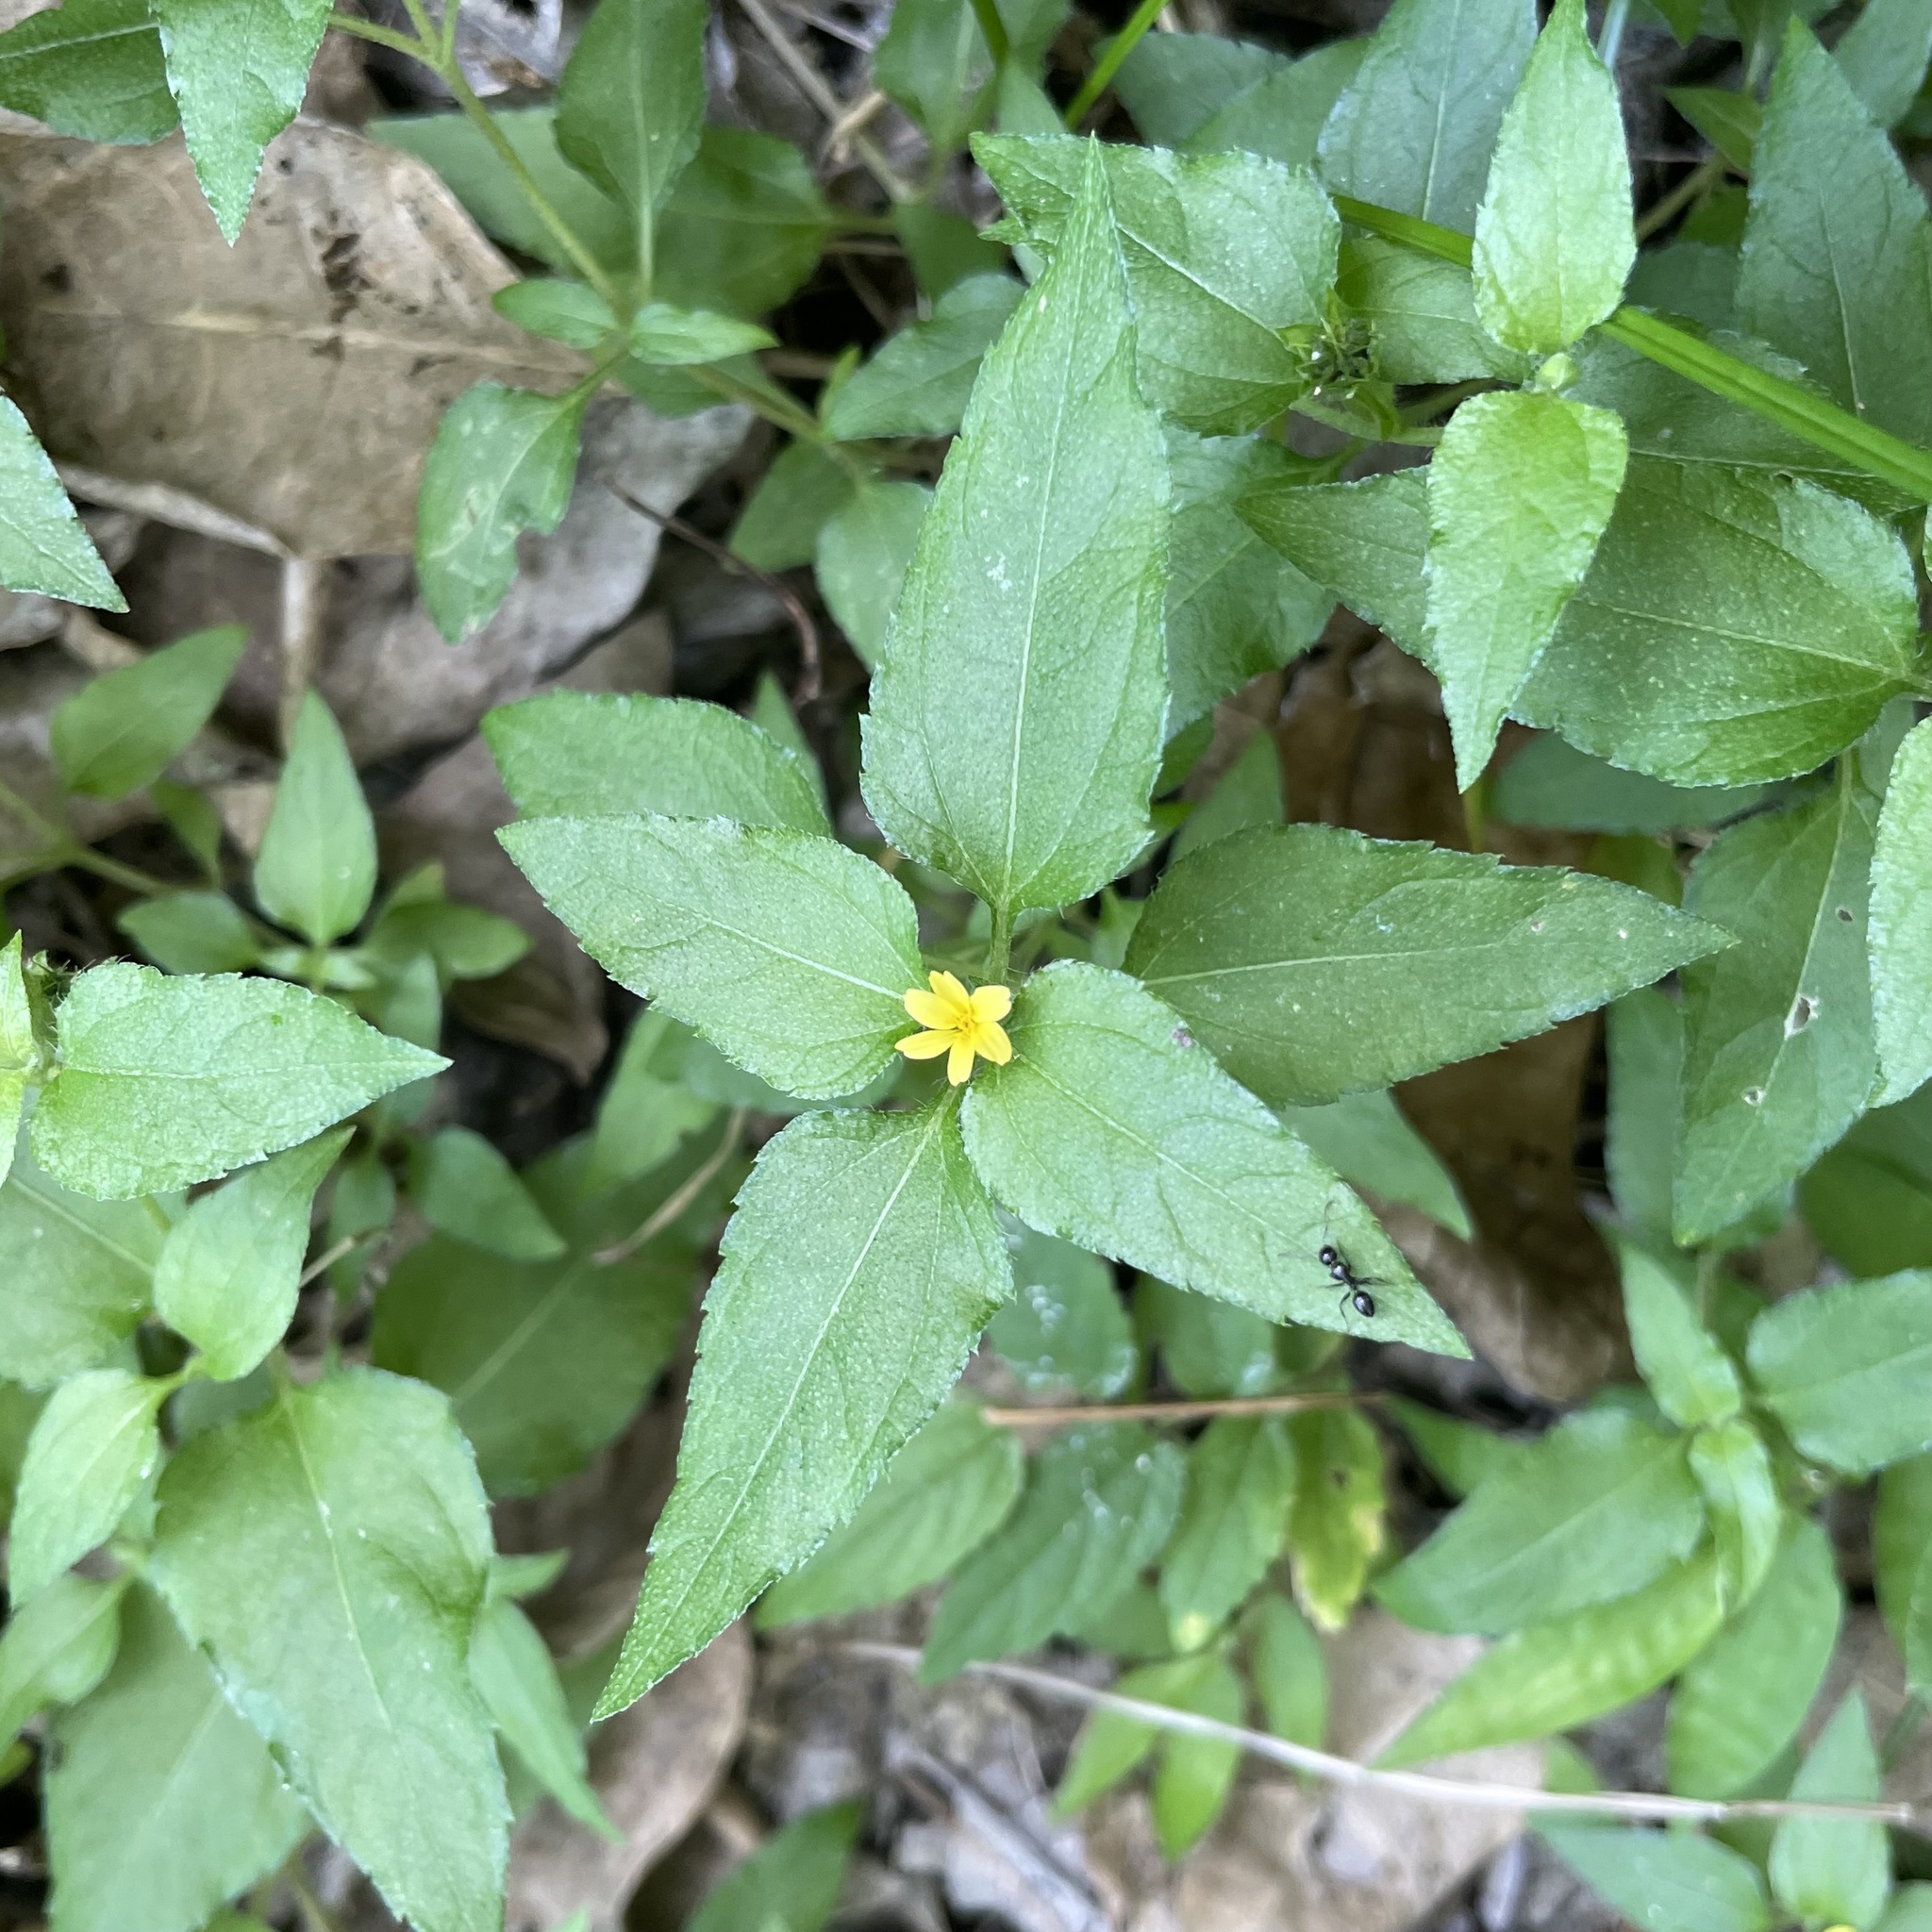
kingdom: Plantae
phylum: Tracheophyta
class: Magnoliopsida
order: Asterales
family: Asteraceae
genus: Calyptocarpus
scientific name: Calyptocarpus vialis
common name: Straggler daisy
